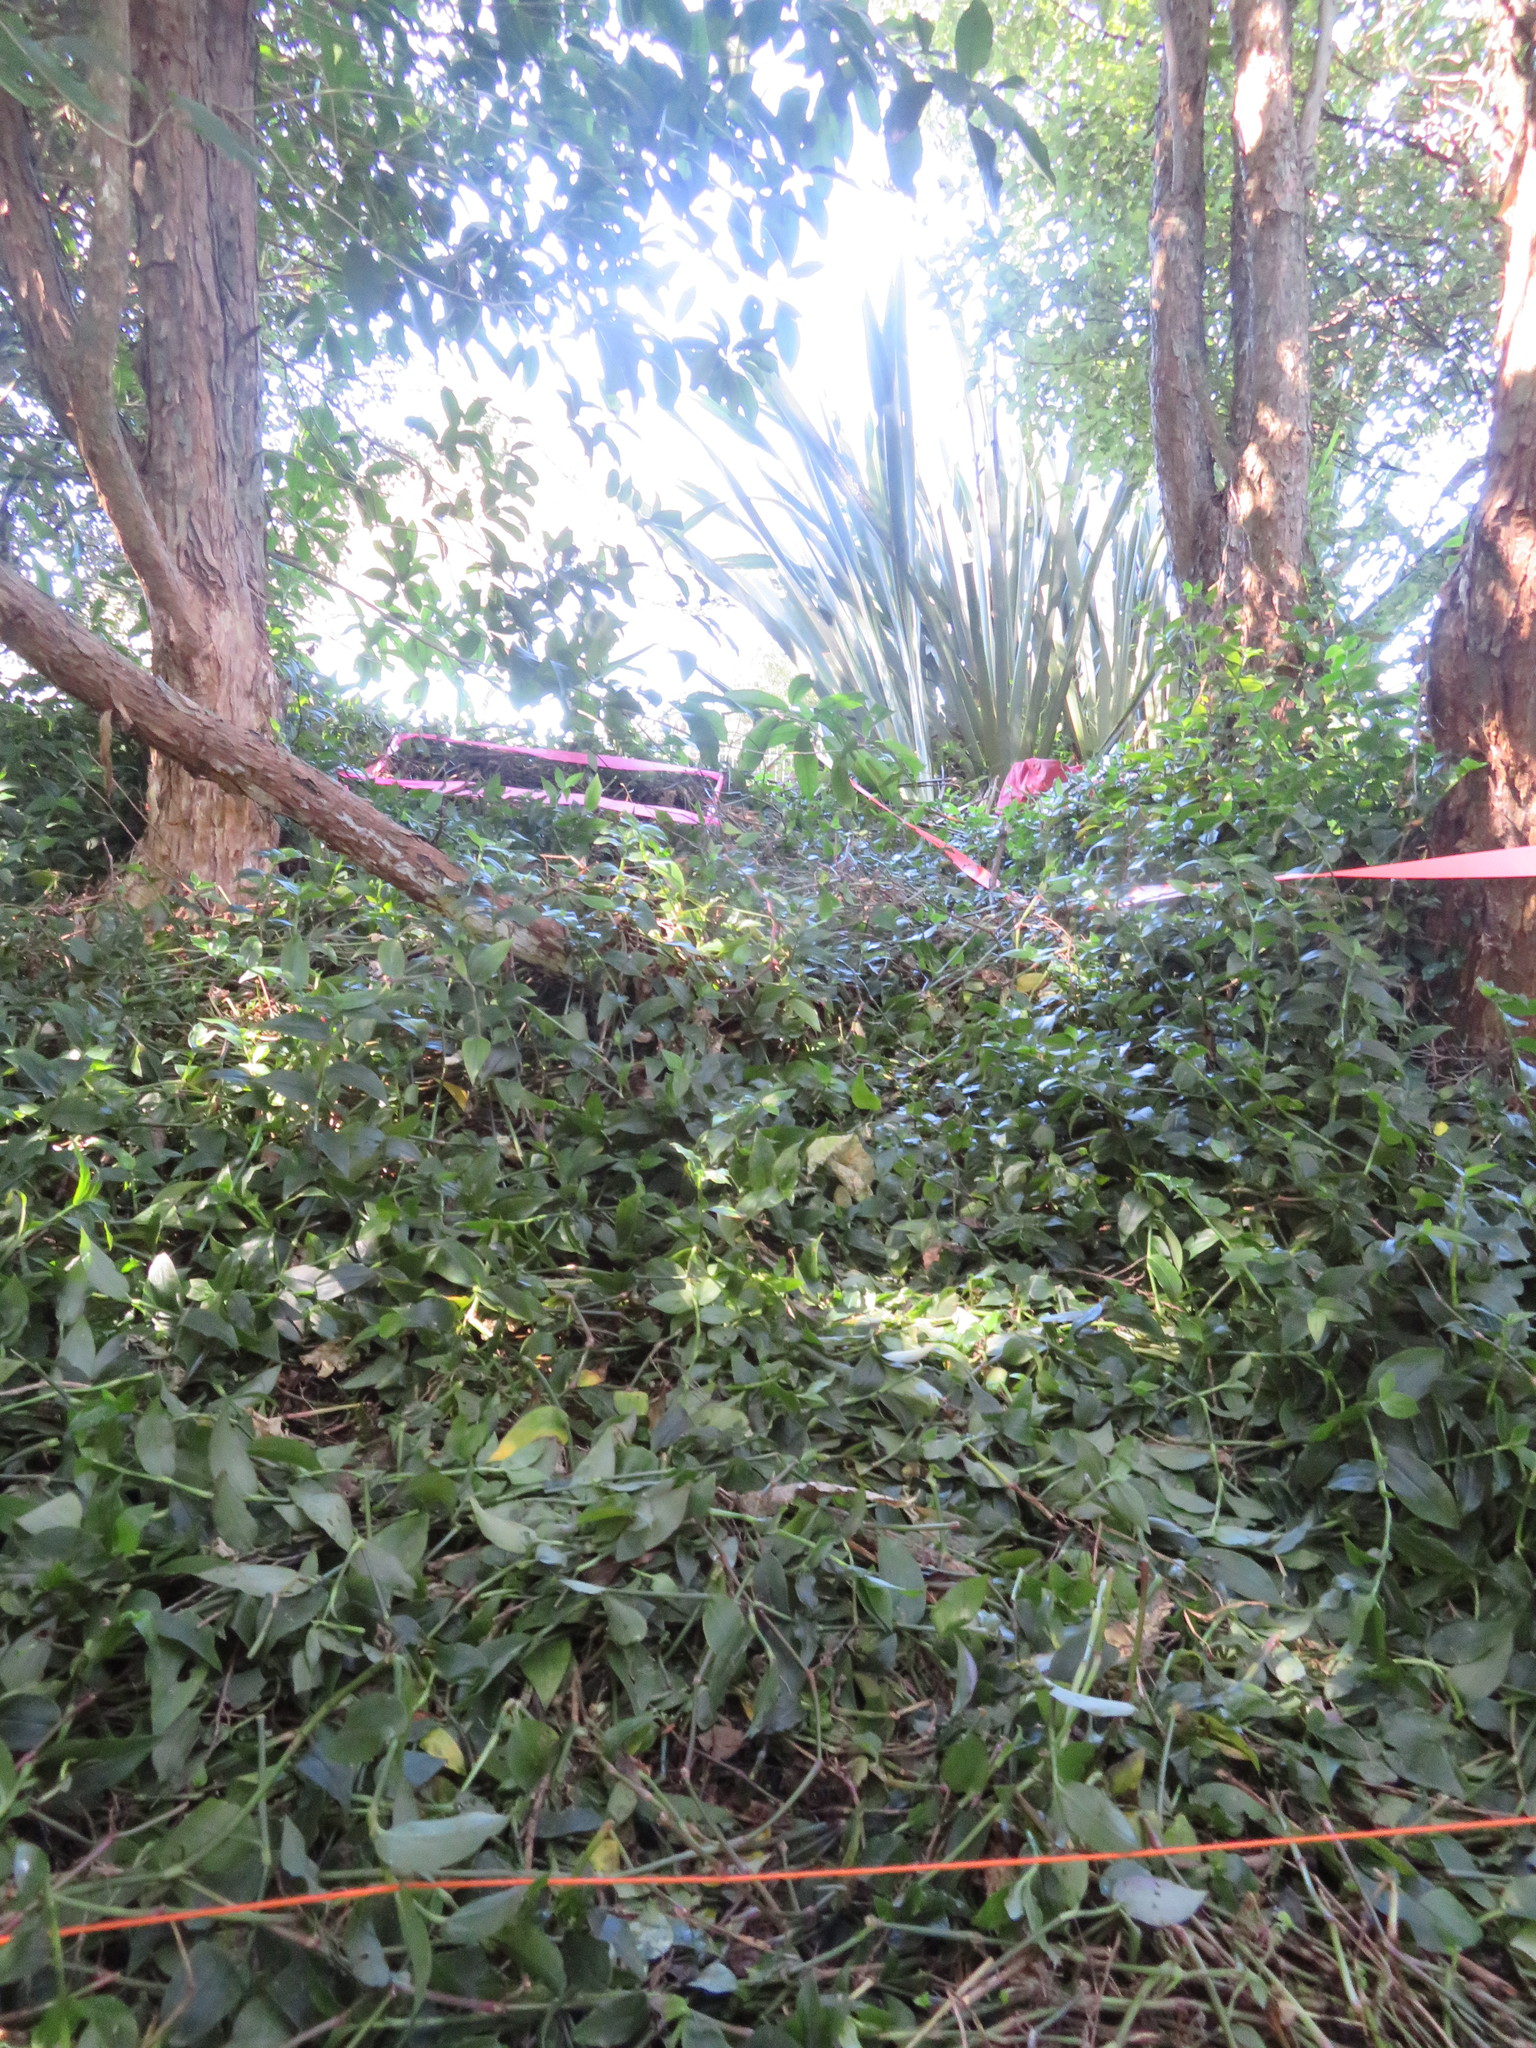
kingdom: Plantae
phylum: Tracheophyta
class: Liliopsida
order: Commelinales
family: Commelinaceae
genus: Tradescantia
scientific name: Tradescantia fluminensis
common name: Wandering-jew
